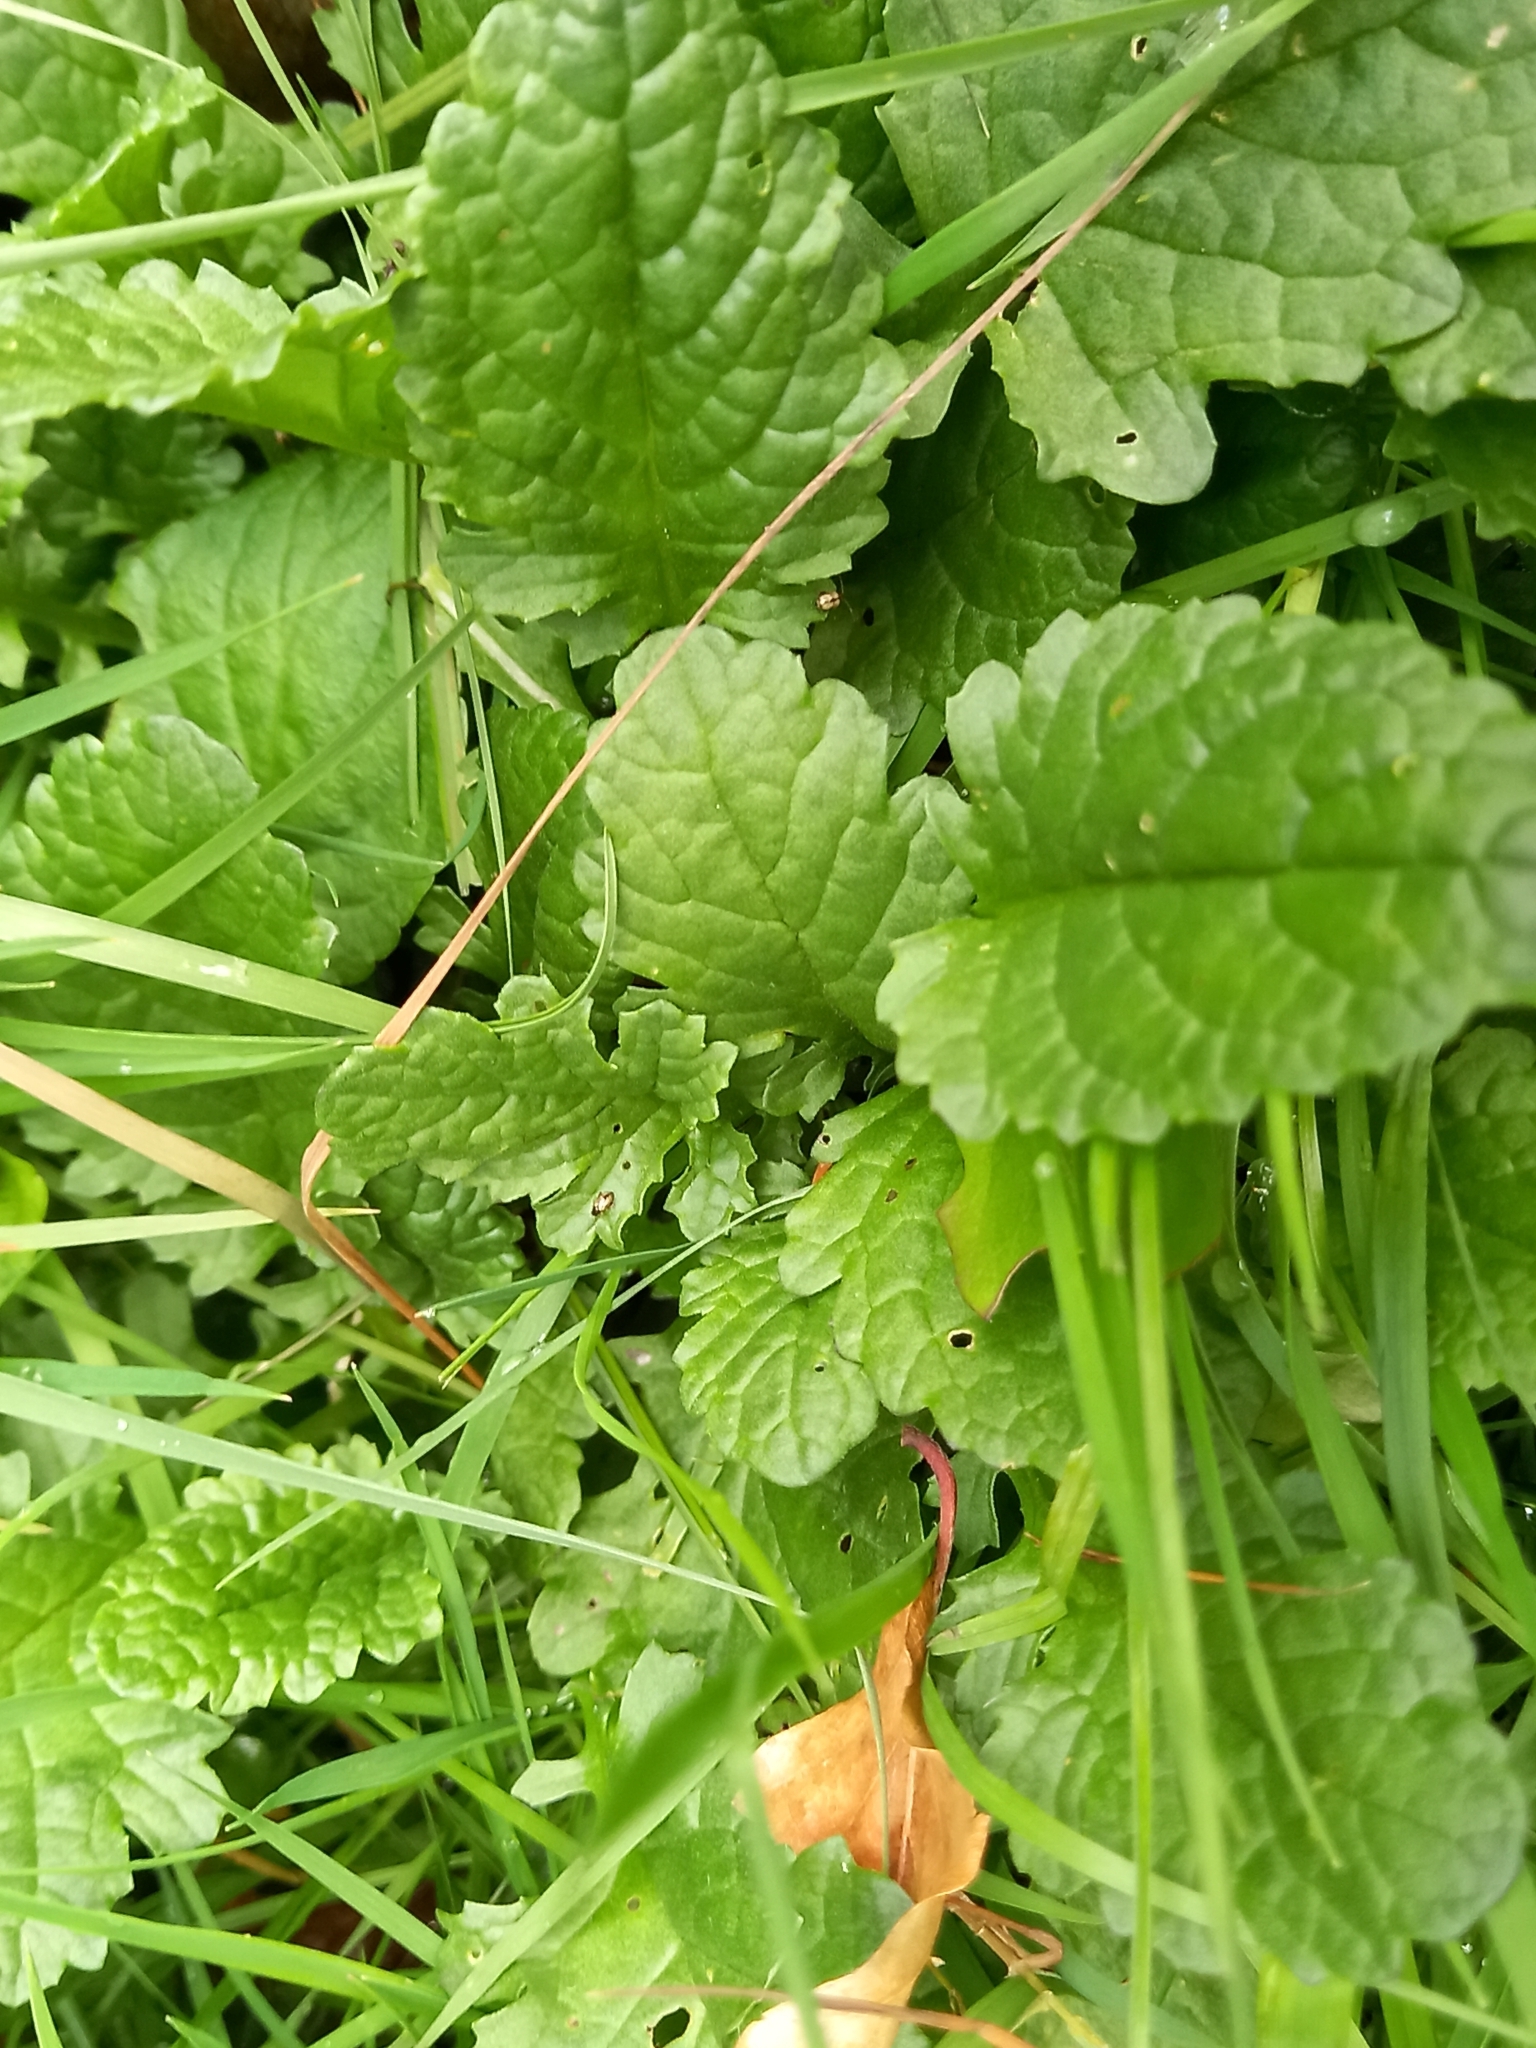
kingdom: Plantae
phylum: Tracheophyta
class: Magnoliopsida
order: Asterales
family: Asteraceae
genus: Jacobaea
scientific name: Jacobaea vulgaris
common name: Stinking willie
